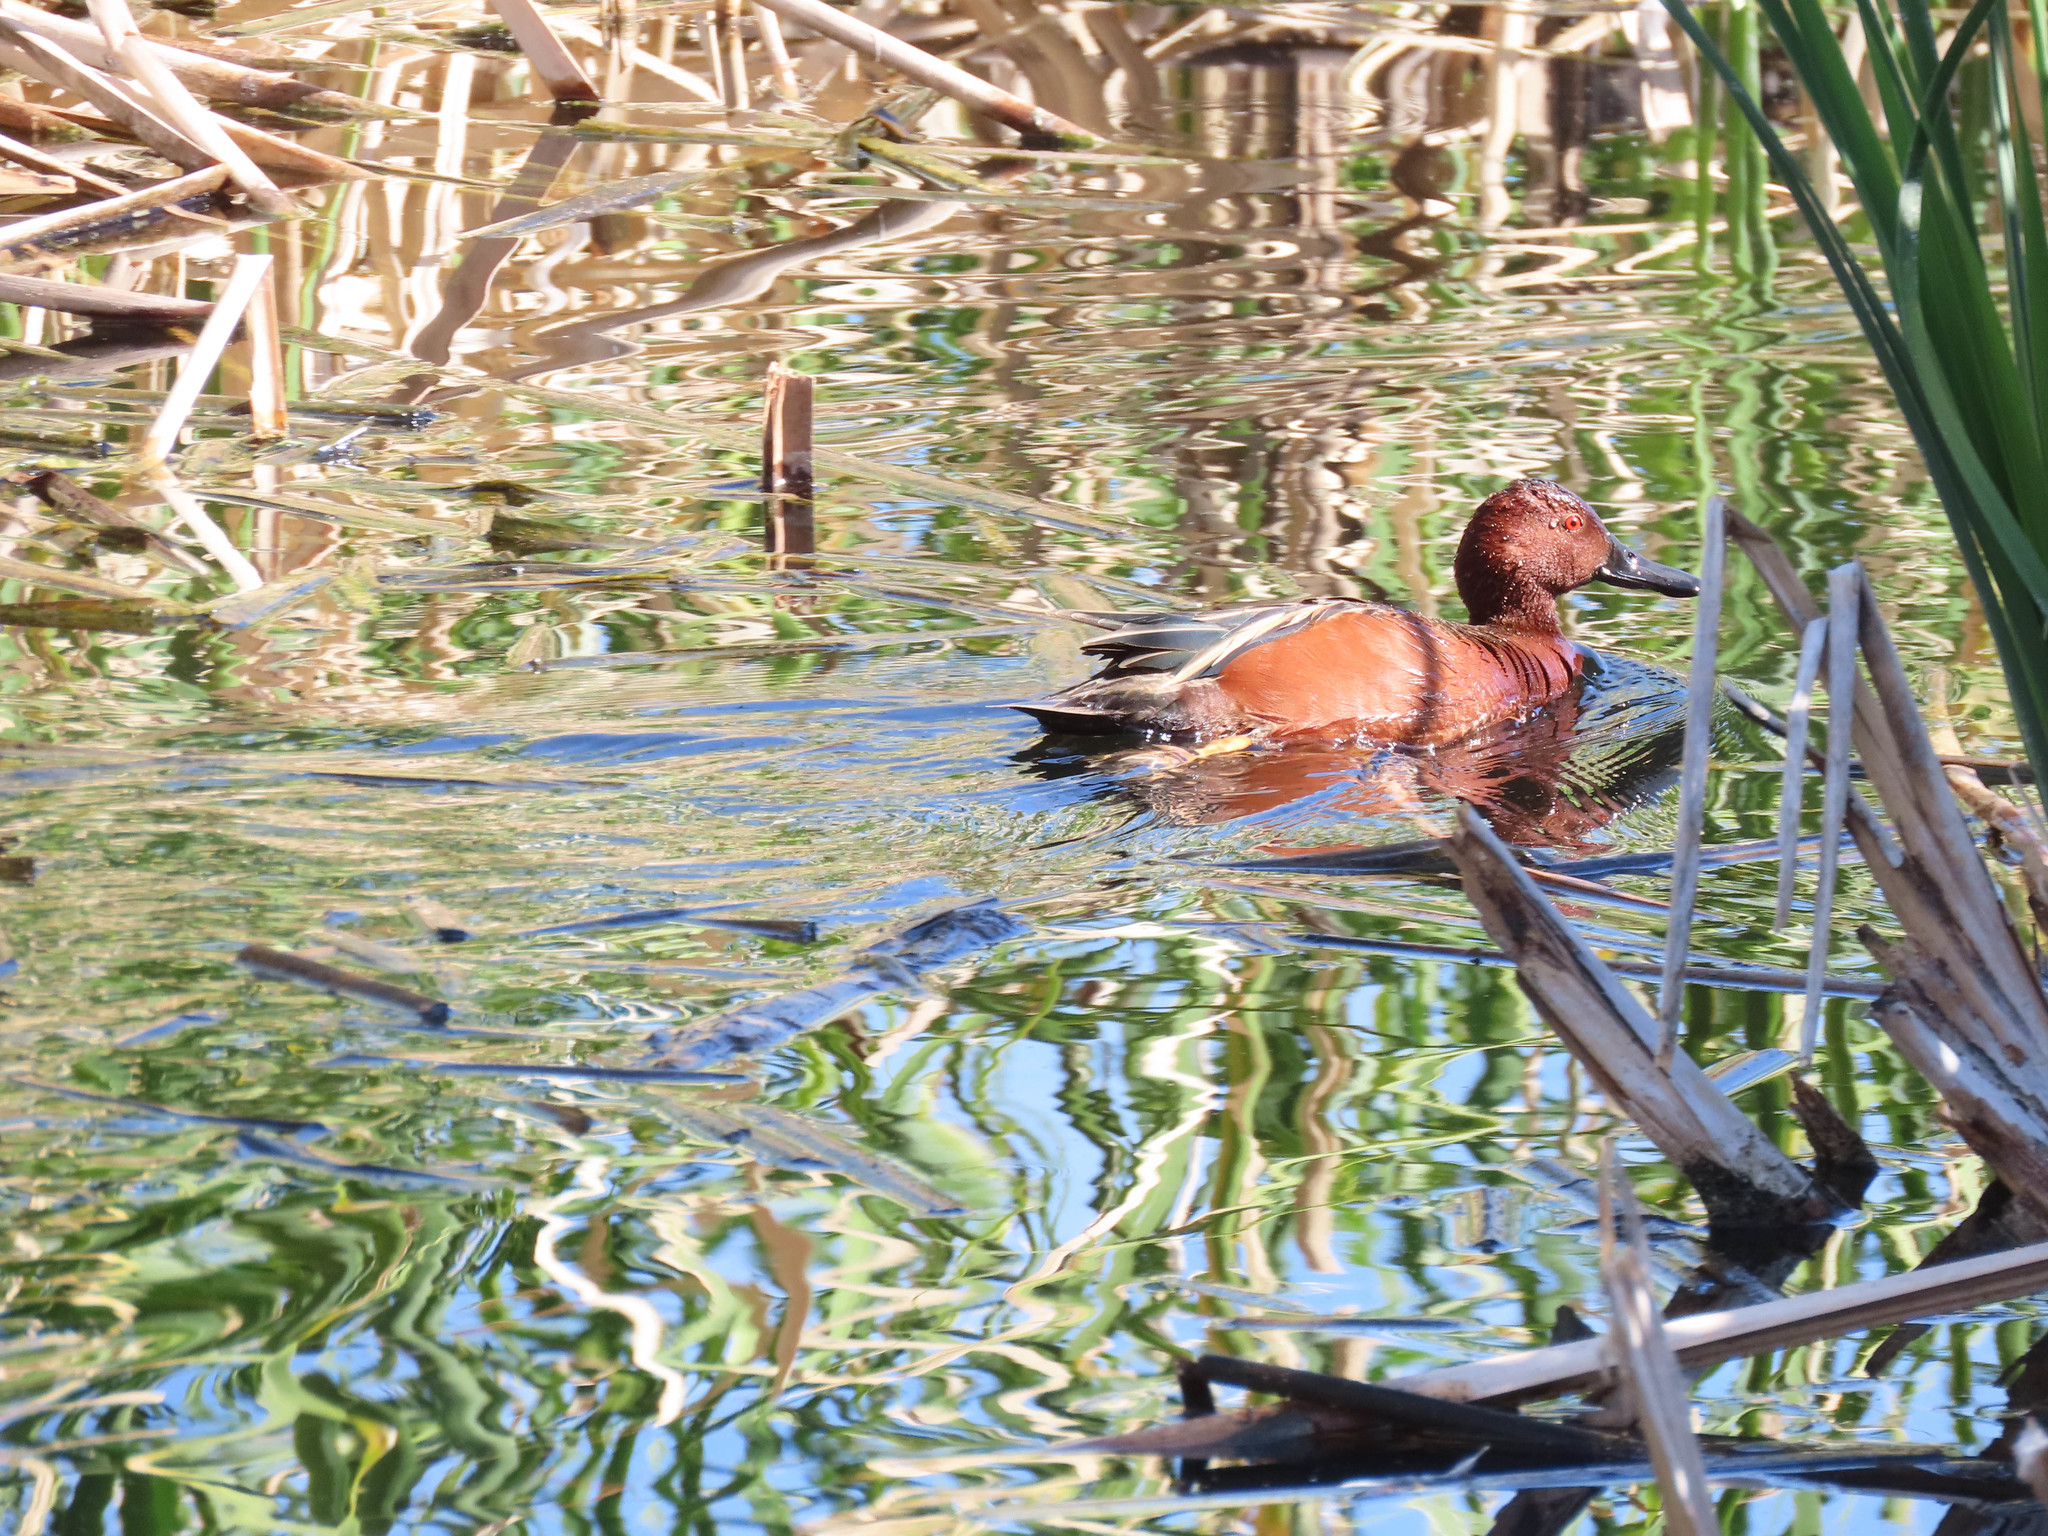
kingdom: Animalia
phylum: Chordata
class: Aves
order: Anseriformes
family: Anatidae
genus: Spatula
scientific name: Spatula cyanoptera
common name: Cinnamon teal
